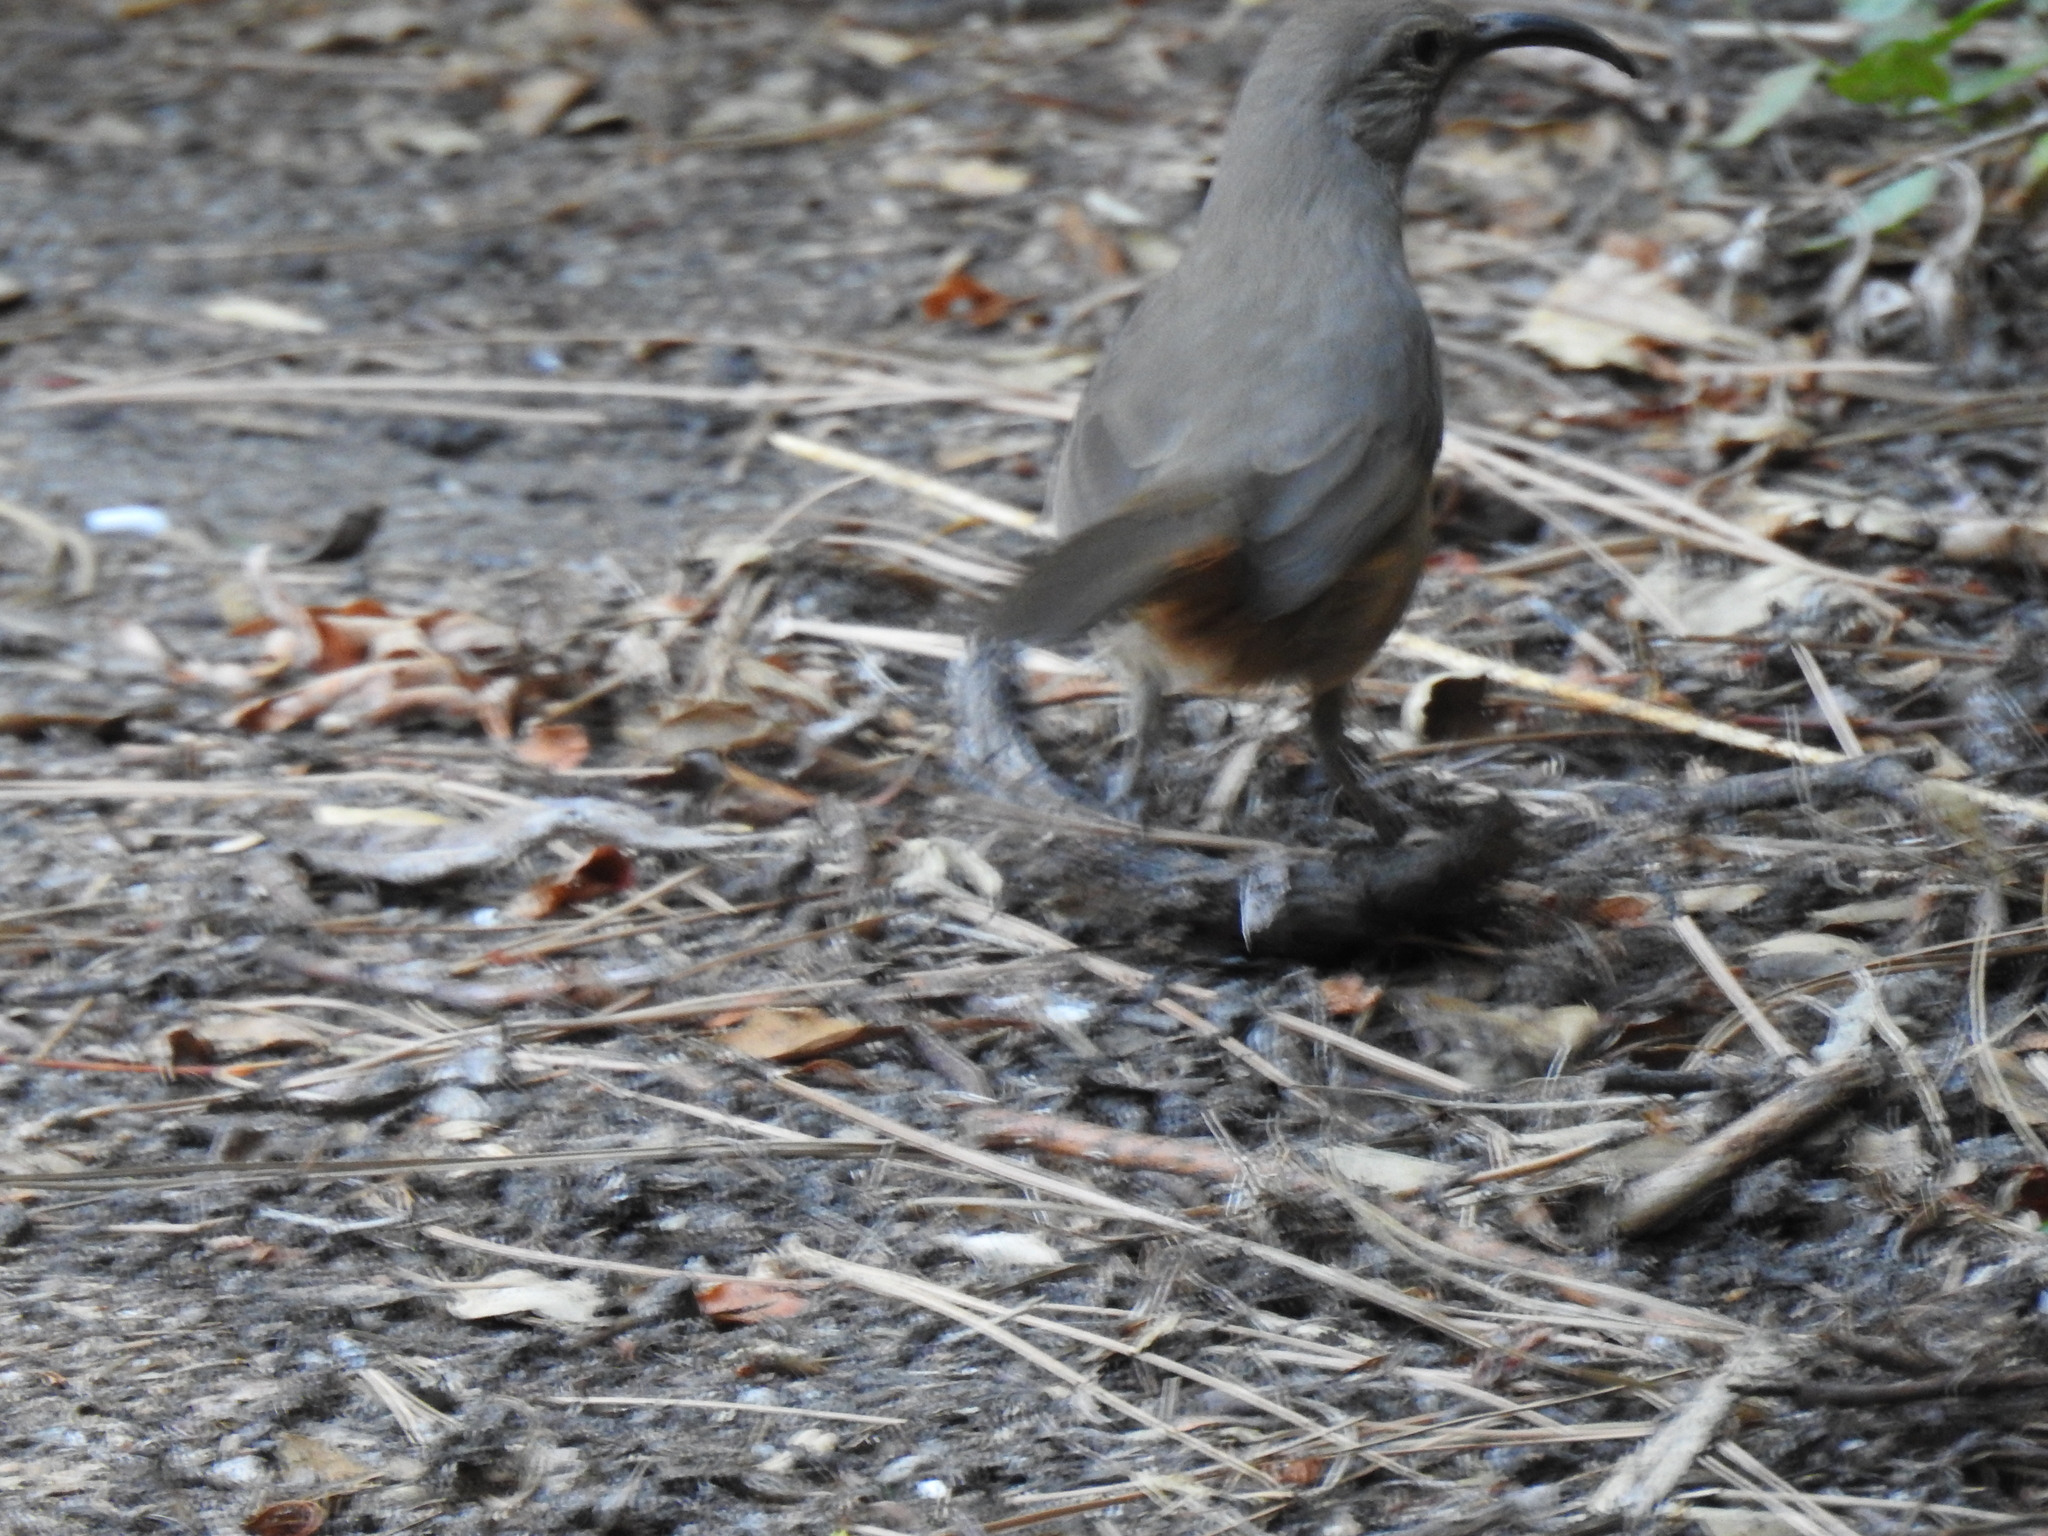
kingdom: Animalia
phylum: Chordata
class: Aves
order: Passeriformes
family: Mimidae
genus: Toxostoma
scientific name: Toxostoma redivivum
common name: California thrasher
